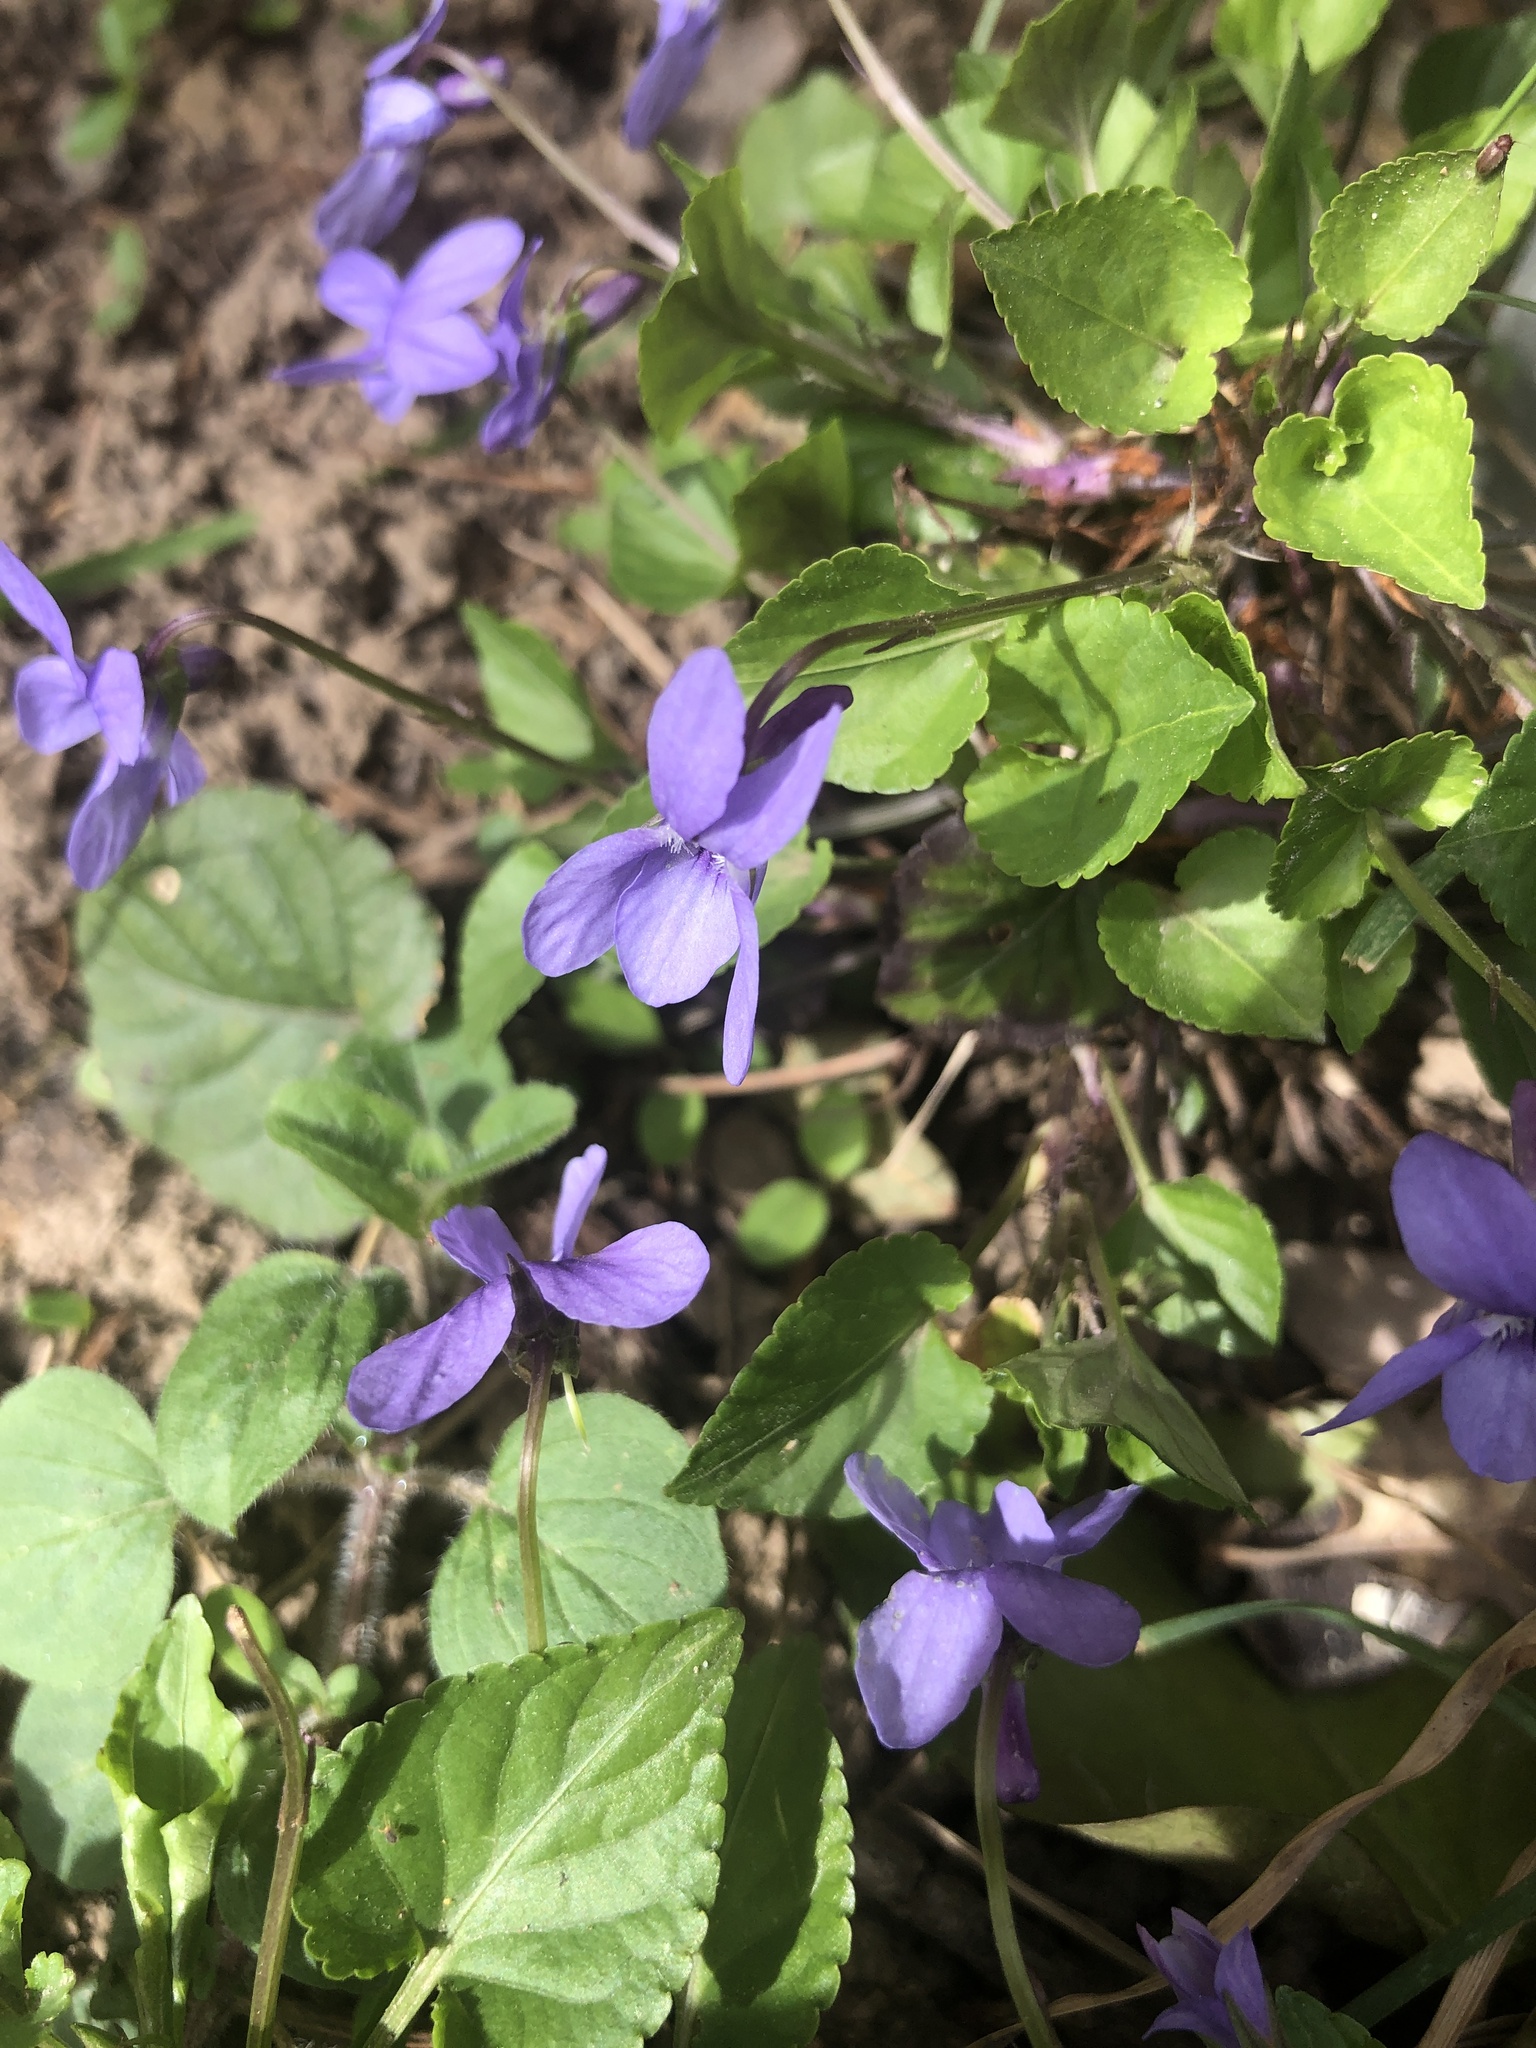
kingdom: Plantae
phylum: Tracheophyta
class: Magnoliopsida
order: Malpighiales
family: Violaceae
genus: Viola
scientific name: Viola reichenbachiana
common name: Early dog-violet
